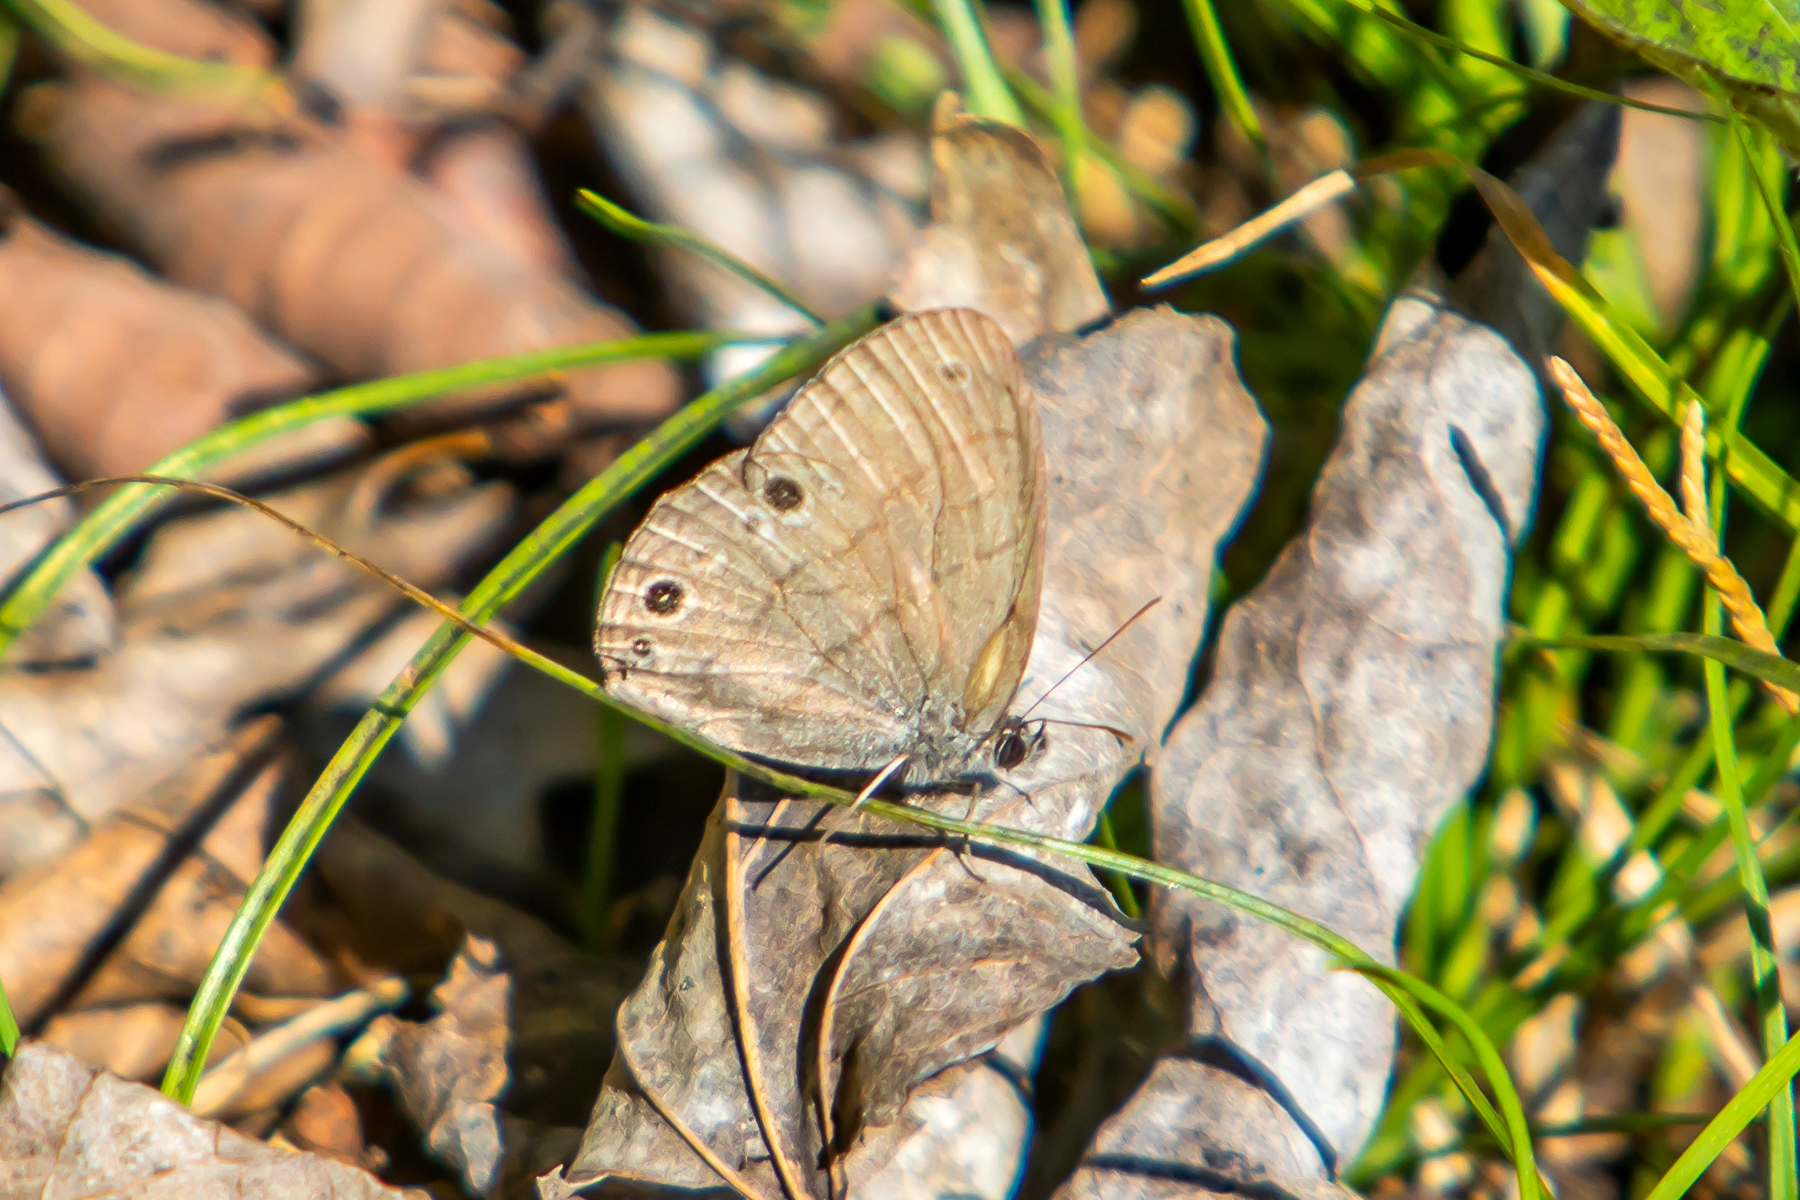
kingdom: Animalia
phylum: Arthropoda
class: Insecta
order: Lepidoptera
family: Nymphalidae
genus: Hermeuptychia
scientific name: Hermeuptychia hermes
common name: Hermes satyr
